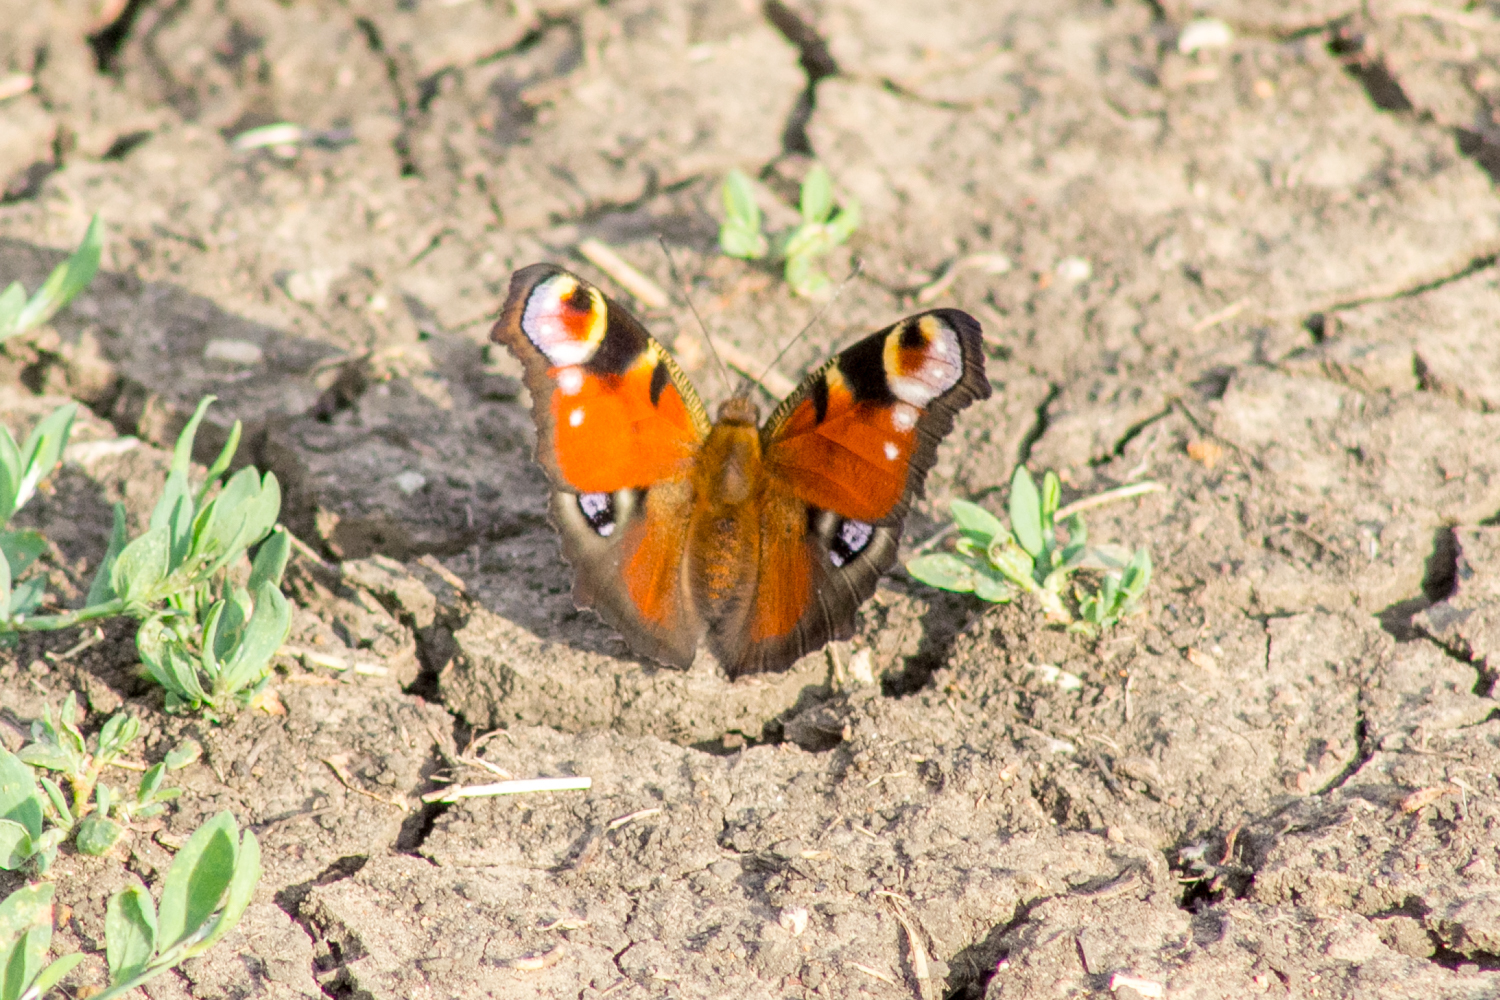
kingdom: Animalia
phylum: Arthropoda
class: Insecta
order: Lepidoptera
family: Nymphalidae
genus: Aglais
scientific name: Aglais io
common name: Peacock
